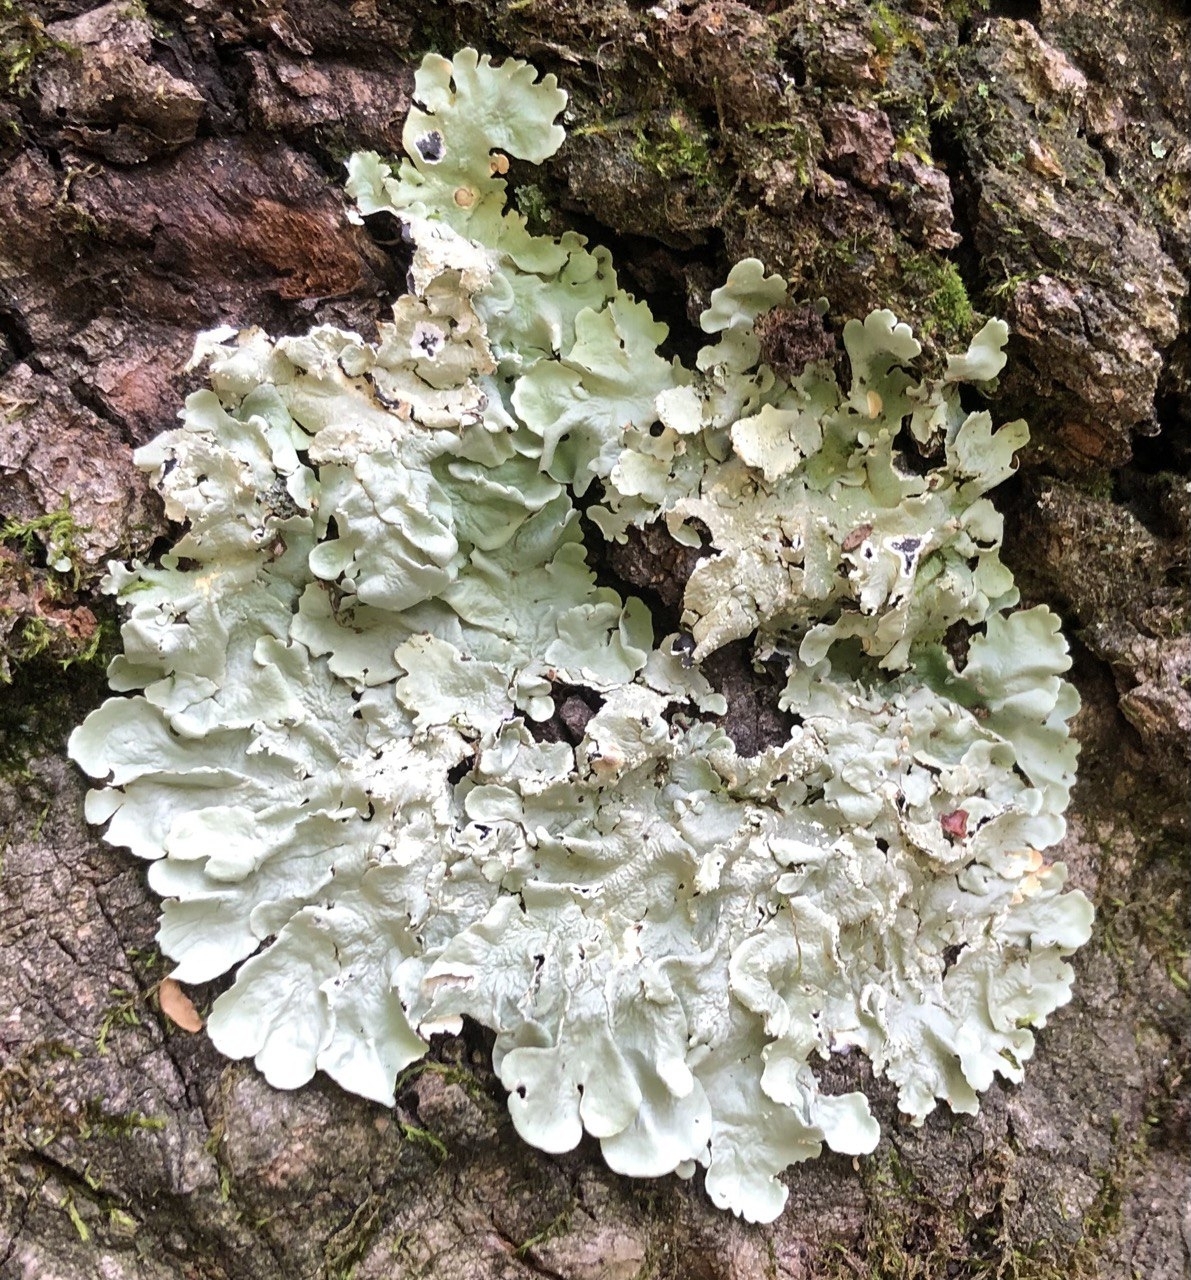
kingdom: Fungi
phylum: Ascomycota
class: Lecanoromycetes
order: Lecanorales
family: Parmeliaceae
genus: Flavoparmelia
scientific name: Flavoparmelia caperata
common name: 40-mile per hour lichen
